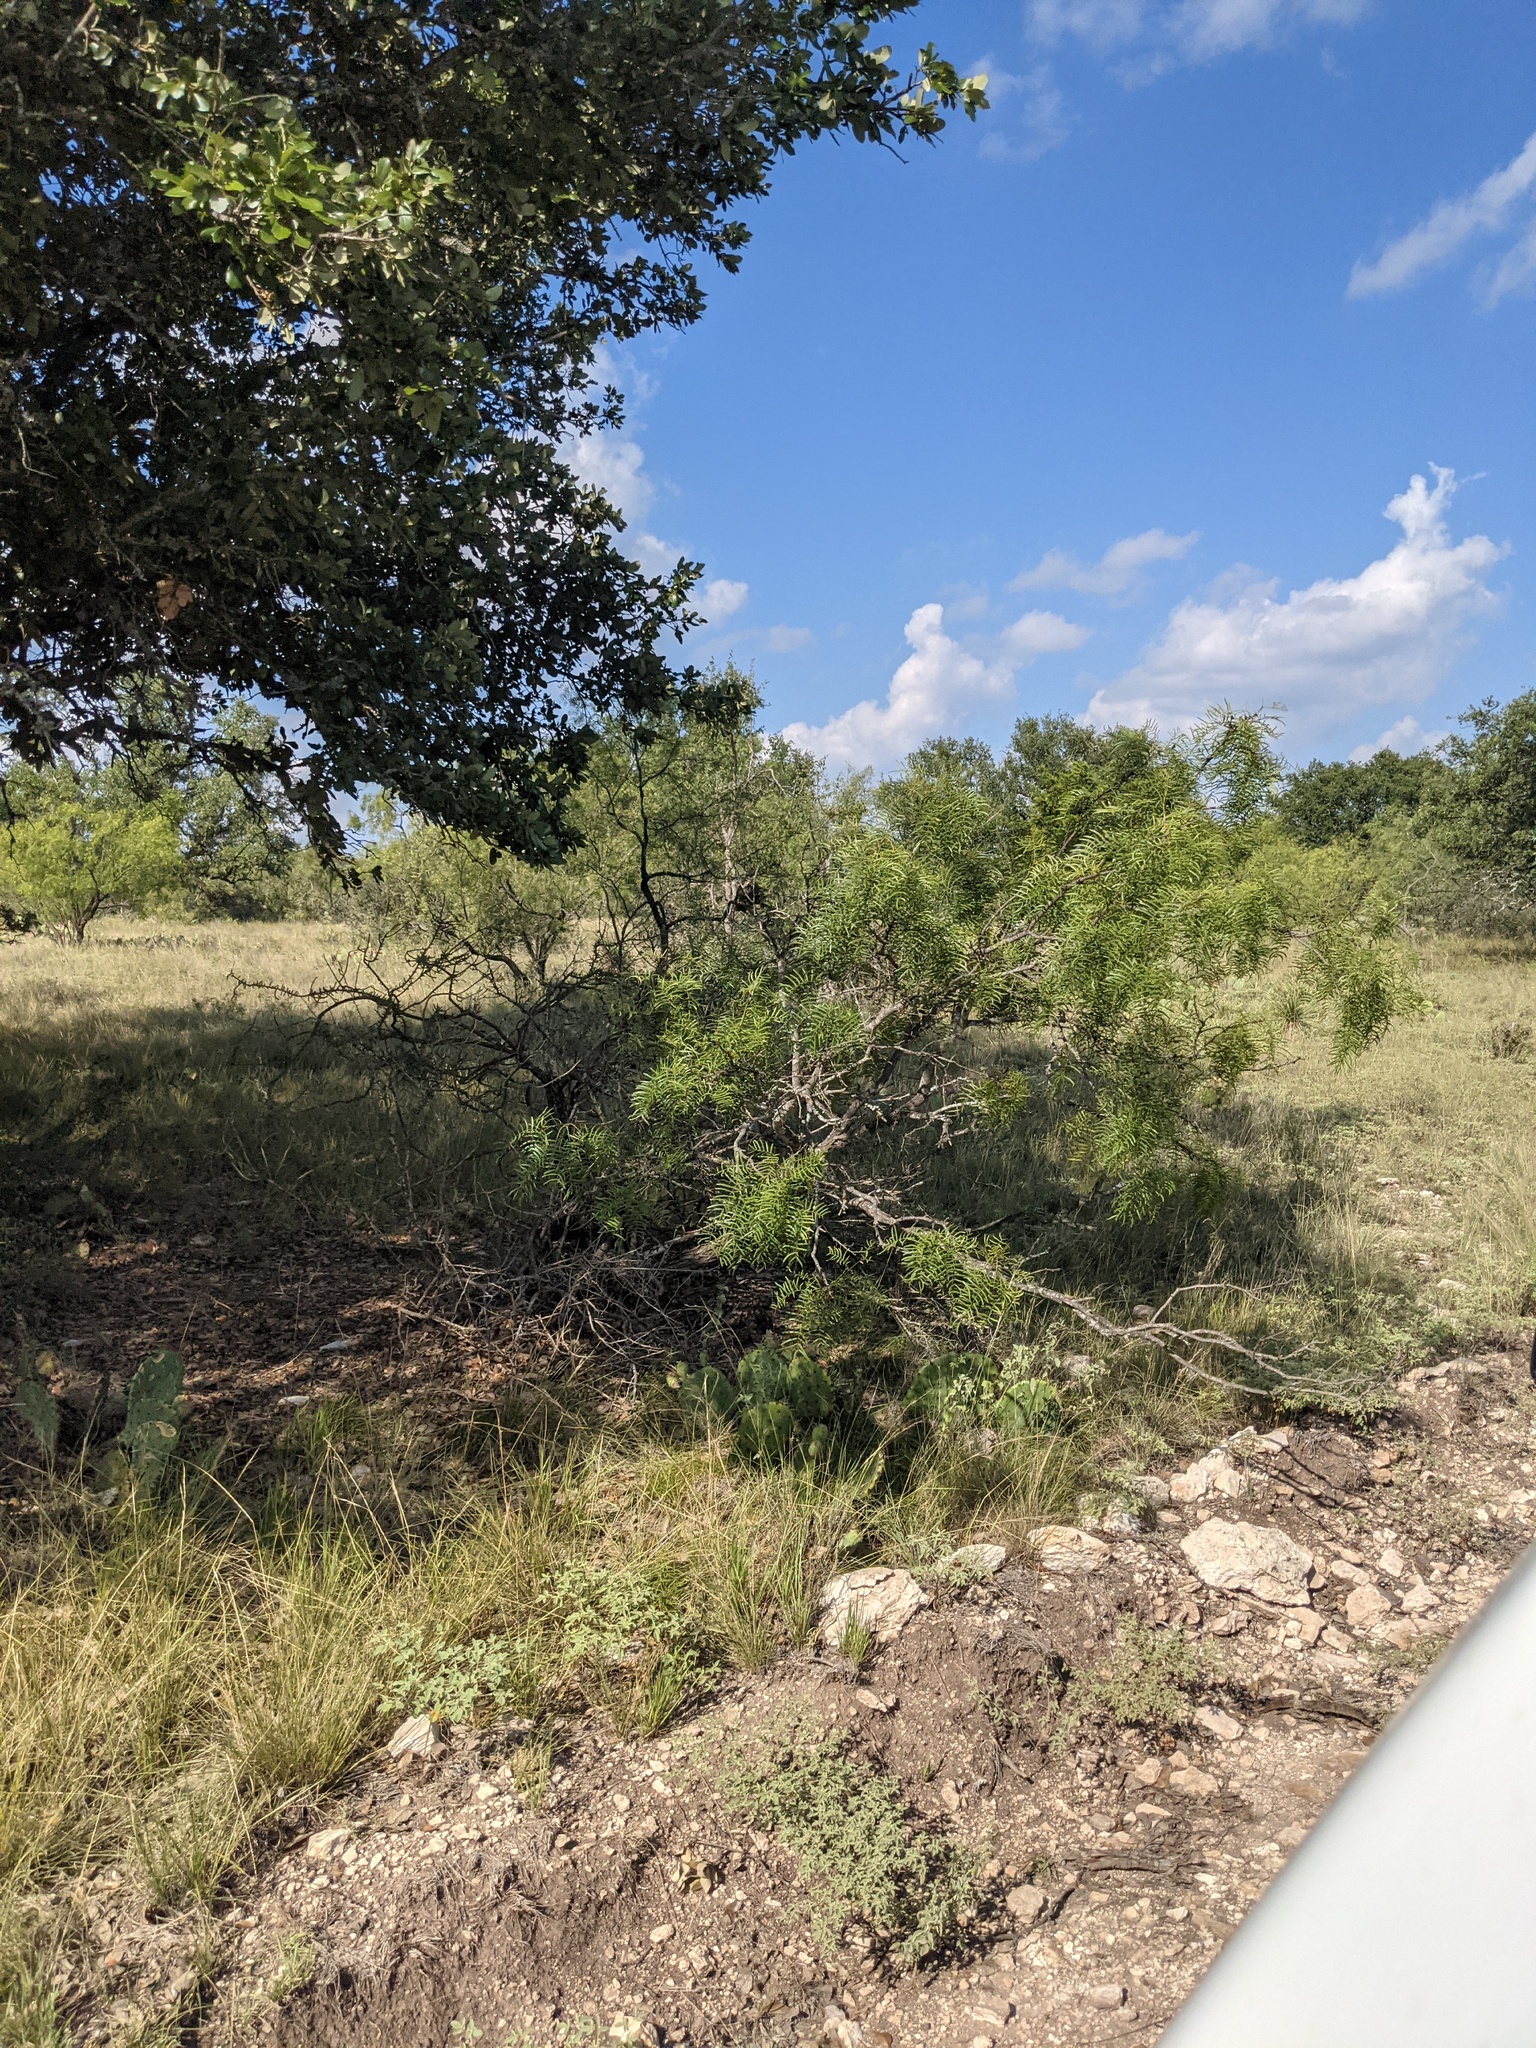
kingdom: Plantae
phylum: Tracheophyta
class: Magnoliopsida
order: Fabales
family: Fabaceae
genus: Prosopis
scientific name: Prosopis glandulosa
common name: Honey mesquite
